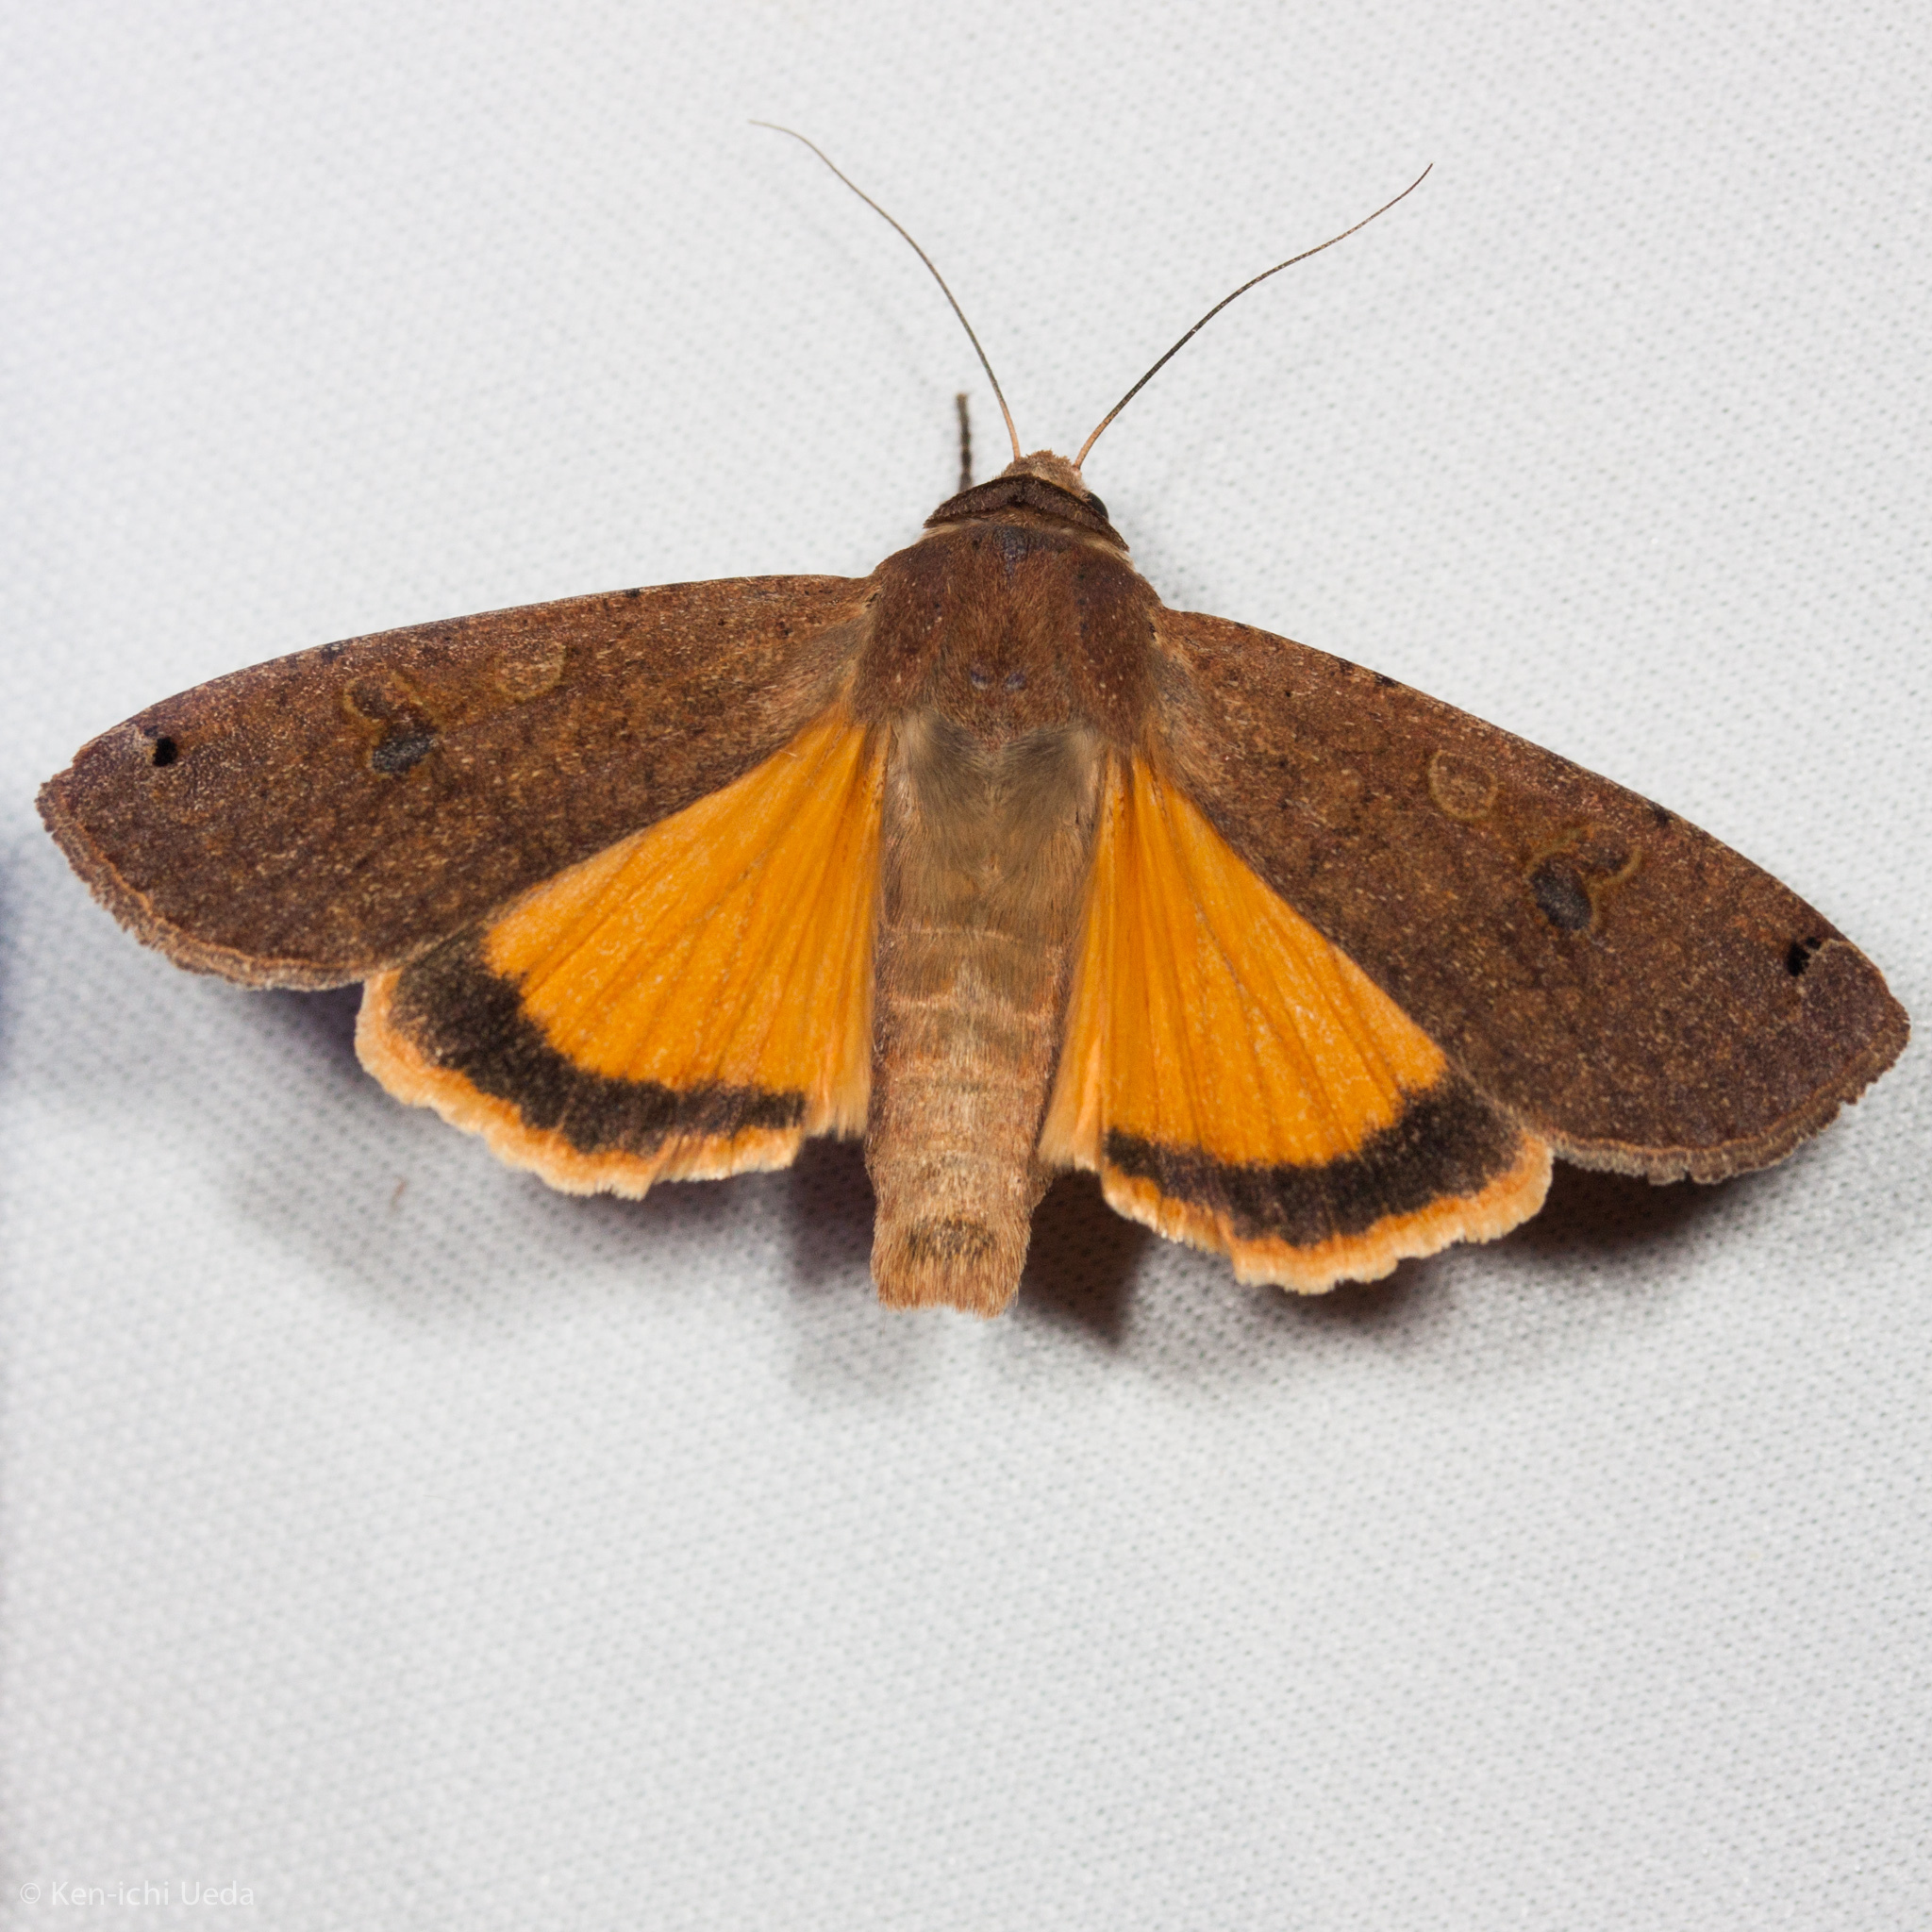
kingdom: Animalia
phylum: Arthropoda
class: Insecta
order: Lepidoptera
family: Noctuidae
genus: Noctua
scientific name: Noctua pronuba
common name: Large yellow underwing
